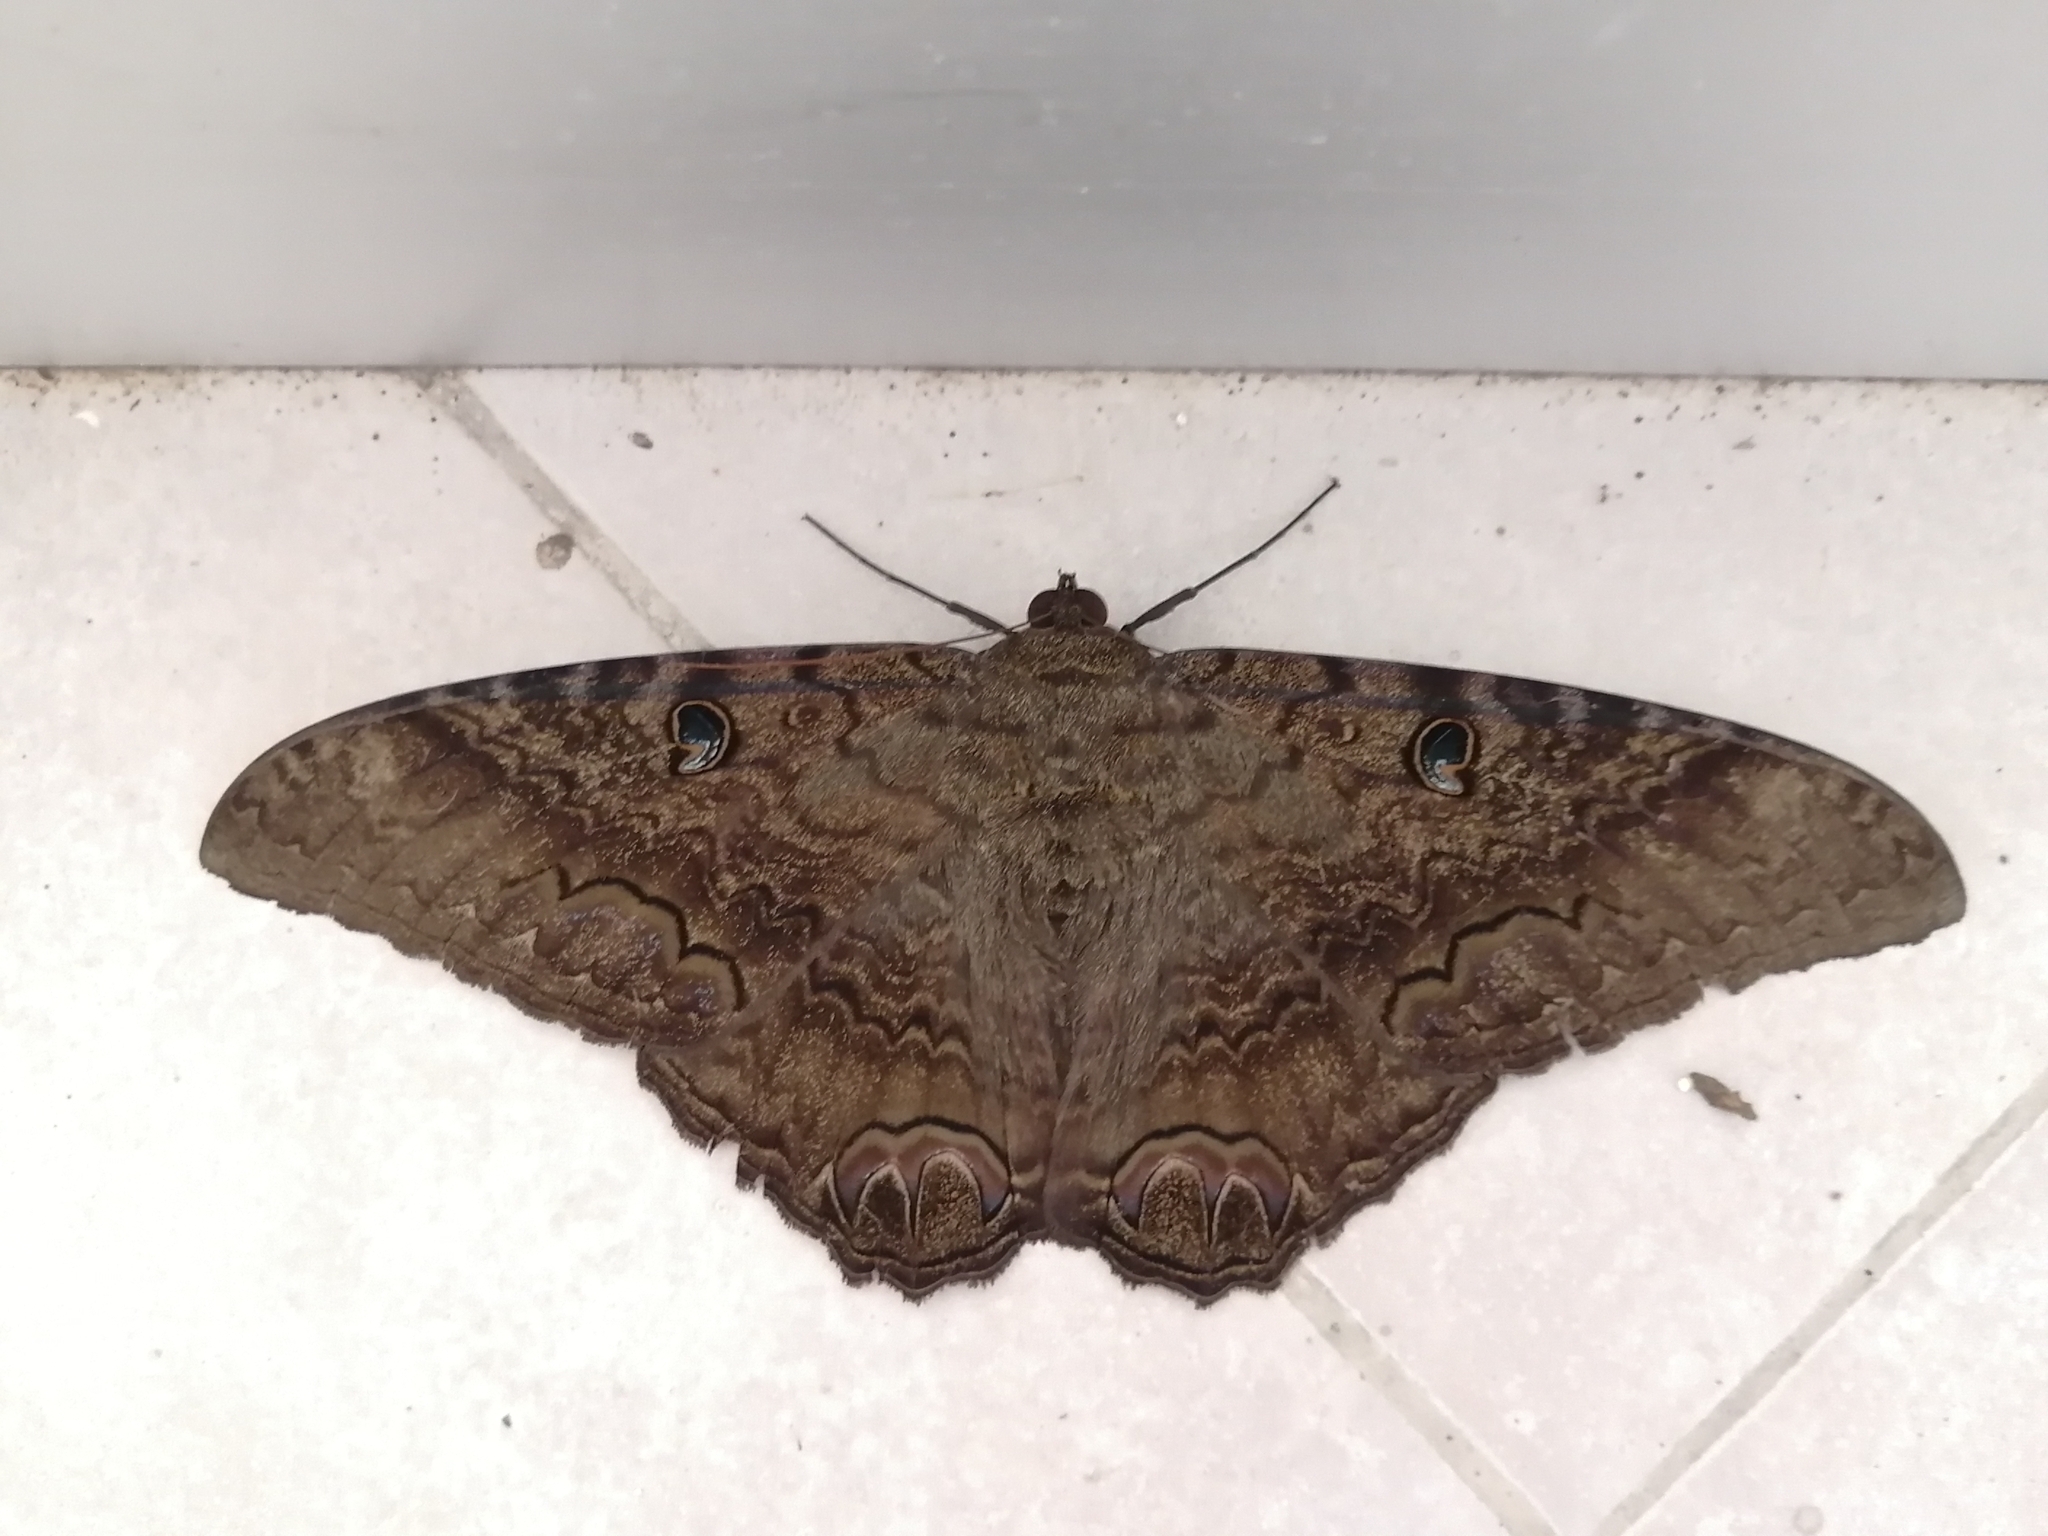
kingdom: Animalia
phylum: Arthropoda
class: Insecta
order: Lepidoptera
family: Erebidae
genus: Ascalapha
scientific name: Ascalapha odorata
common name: Black witch
